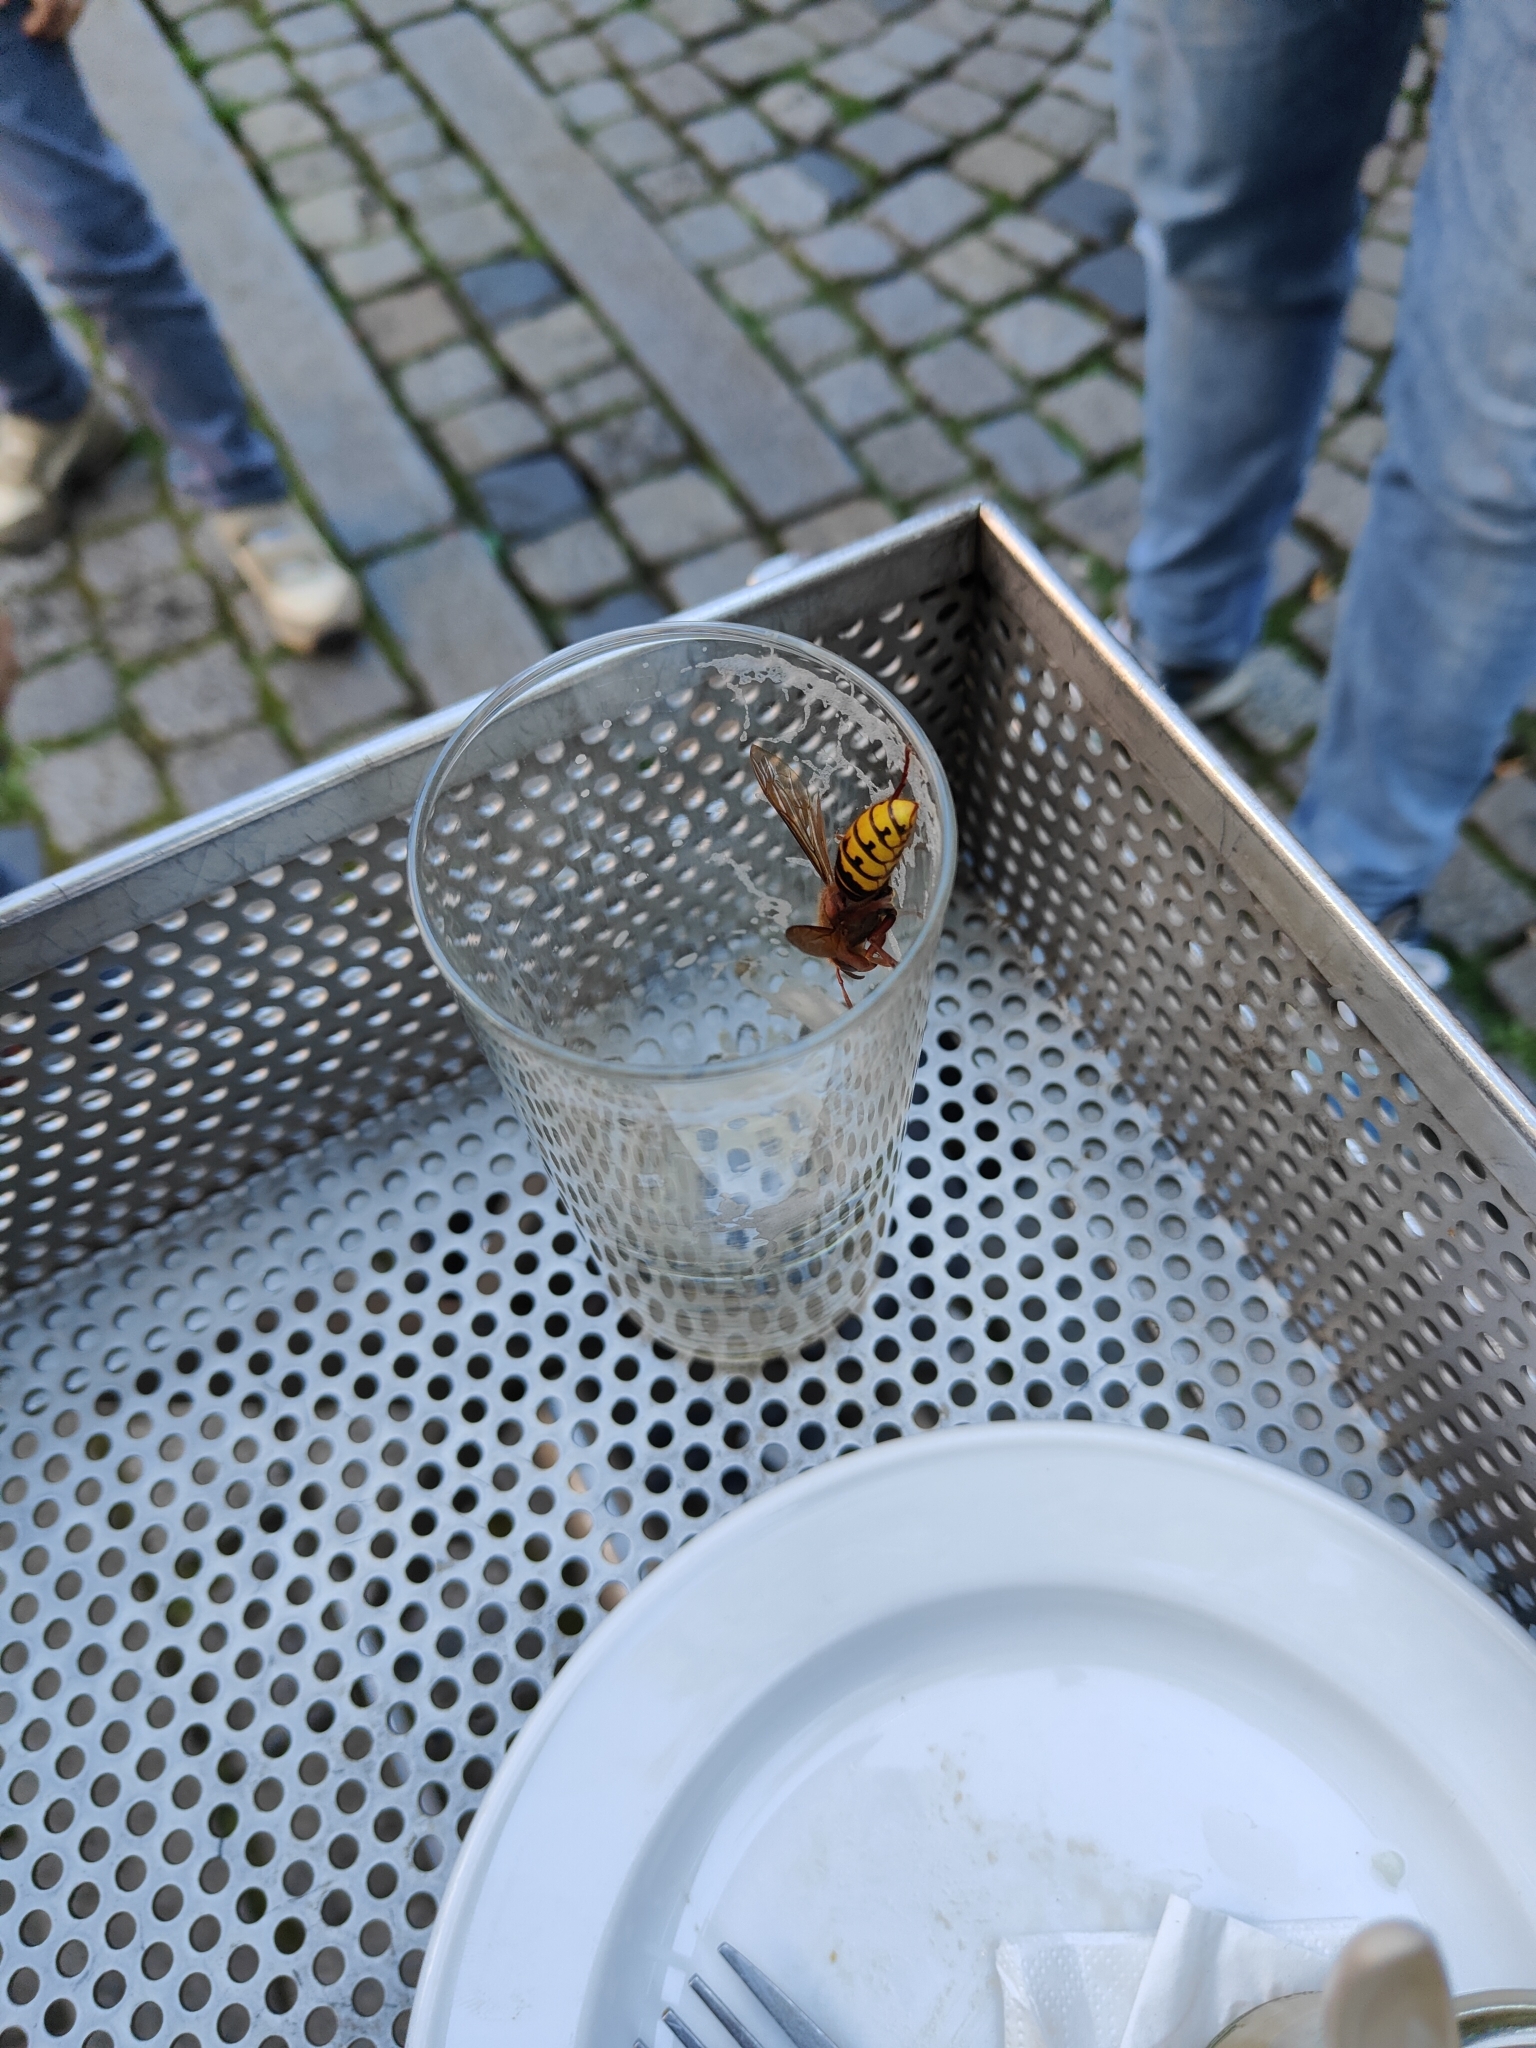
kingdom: Animalia
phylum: Arthropoda
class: Insecta
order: Hymenoptera
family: Vespidae
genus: Vespa
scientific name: Vespa crabro
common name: Hornet
